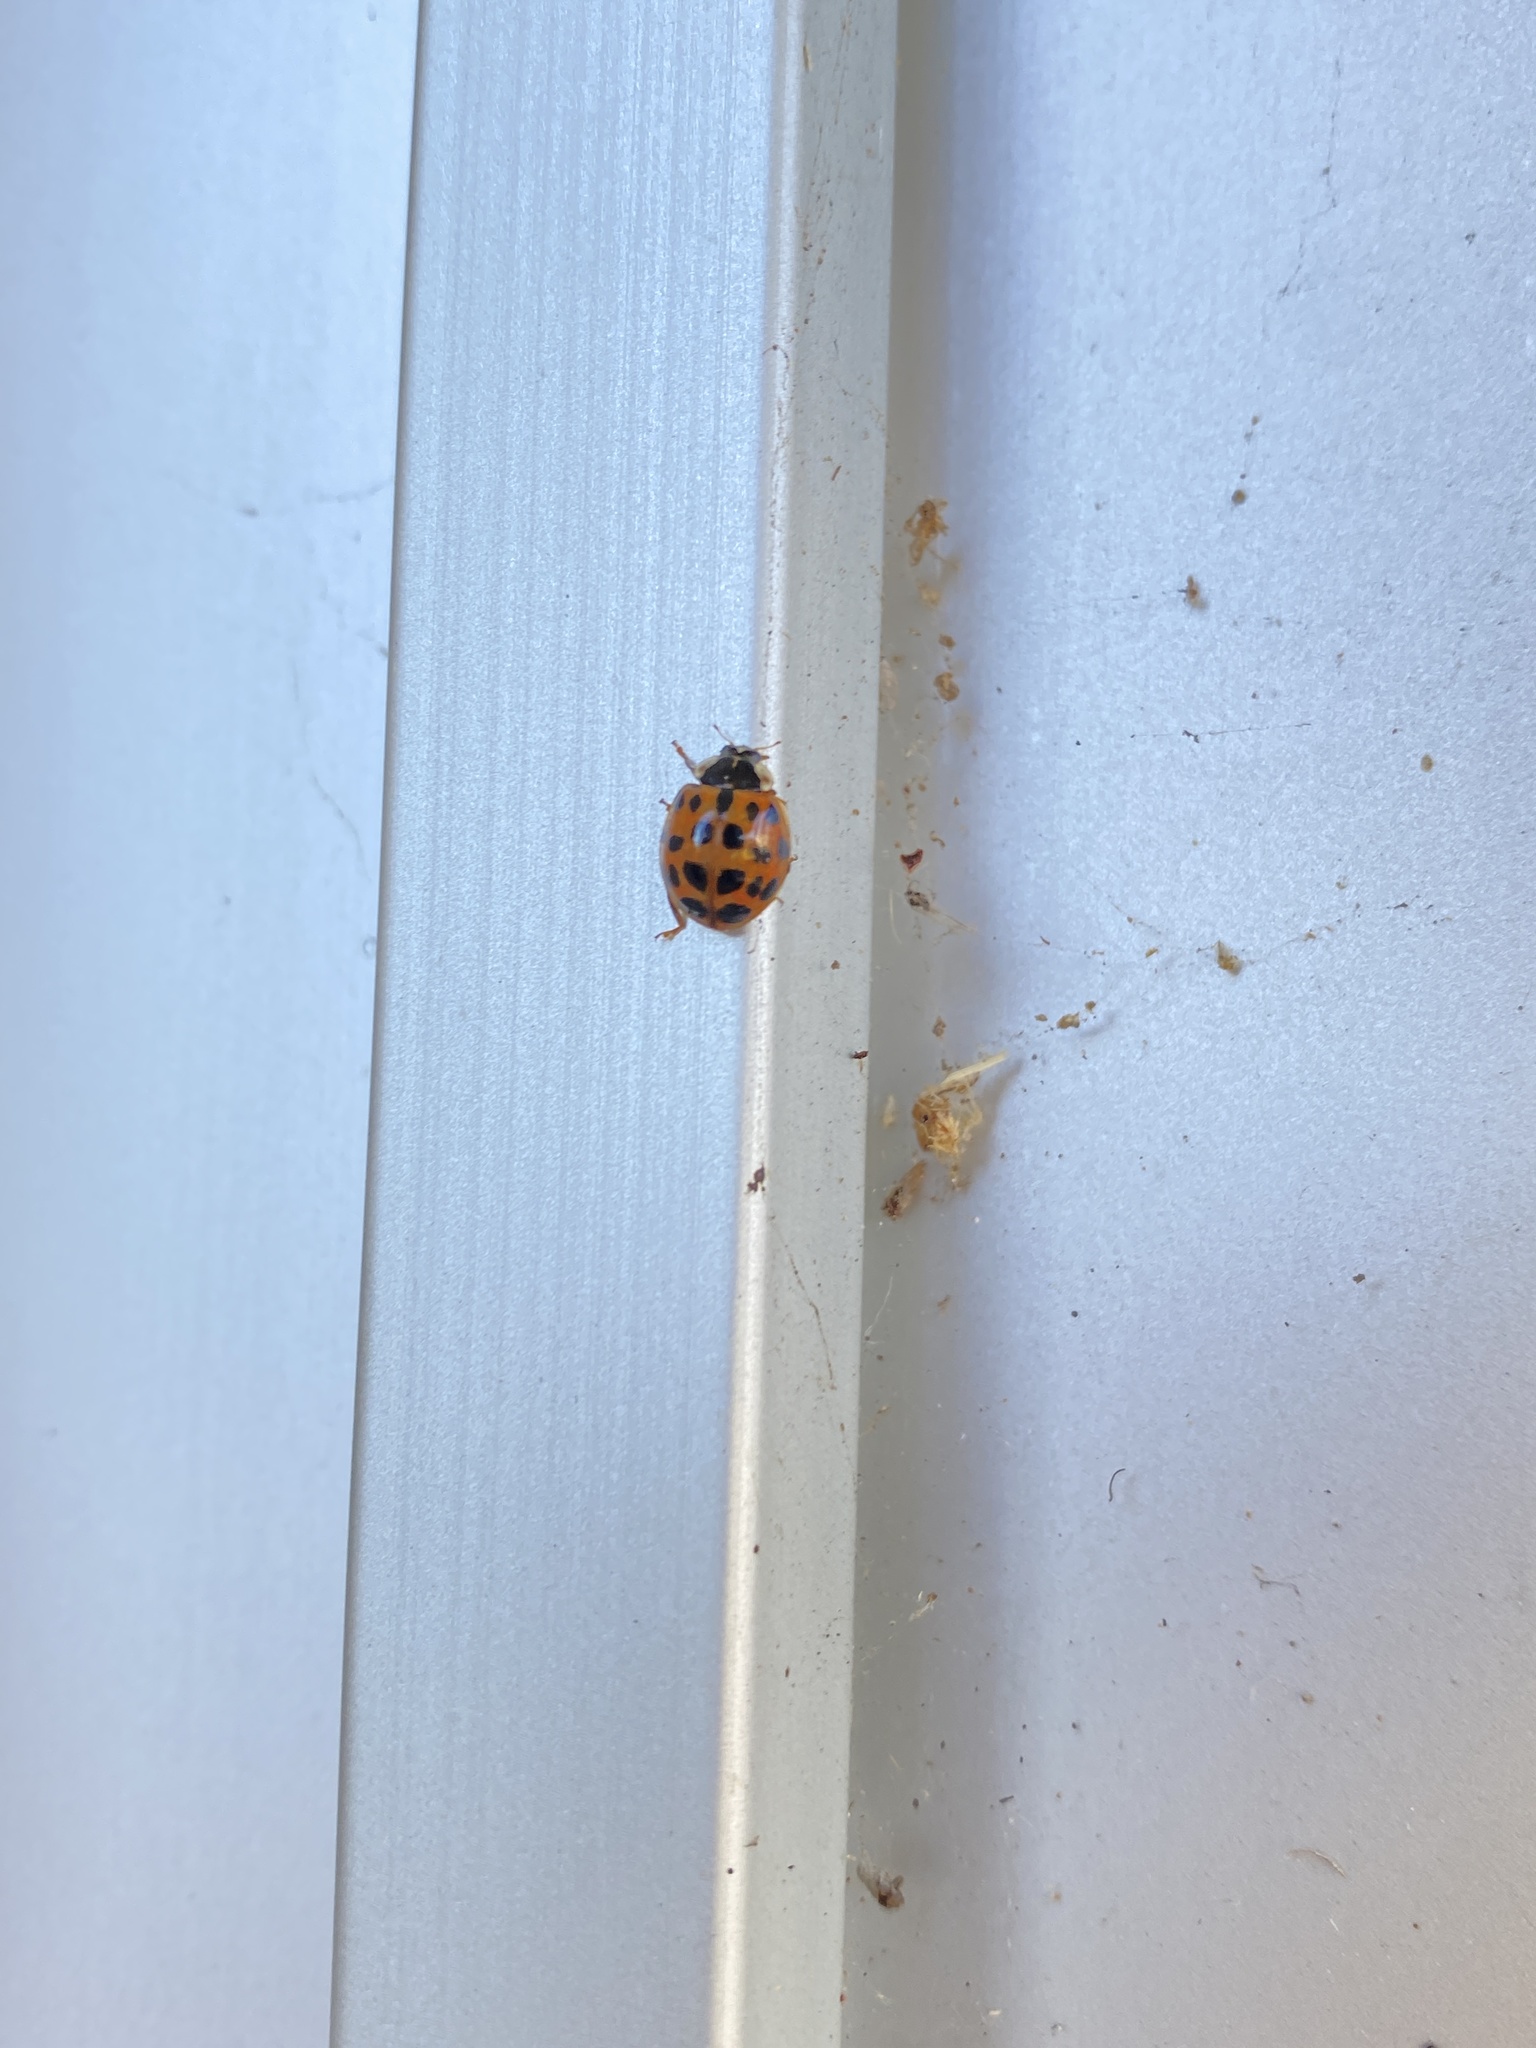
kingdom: Animalia
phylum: Arthropoda
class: Insecta
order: Coleoptera
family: Coccinellidae
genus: Harmonia
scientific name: Harmonia axyridis
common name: Harlequin ladybird
